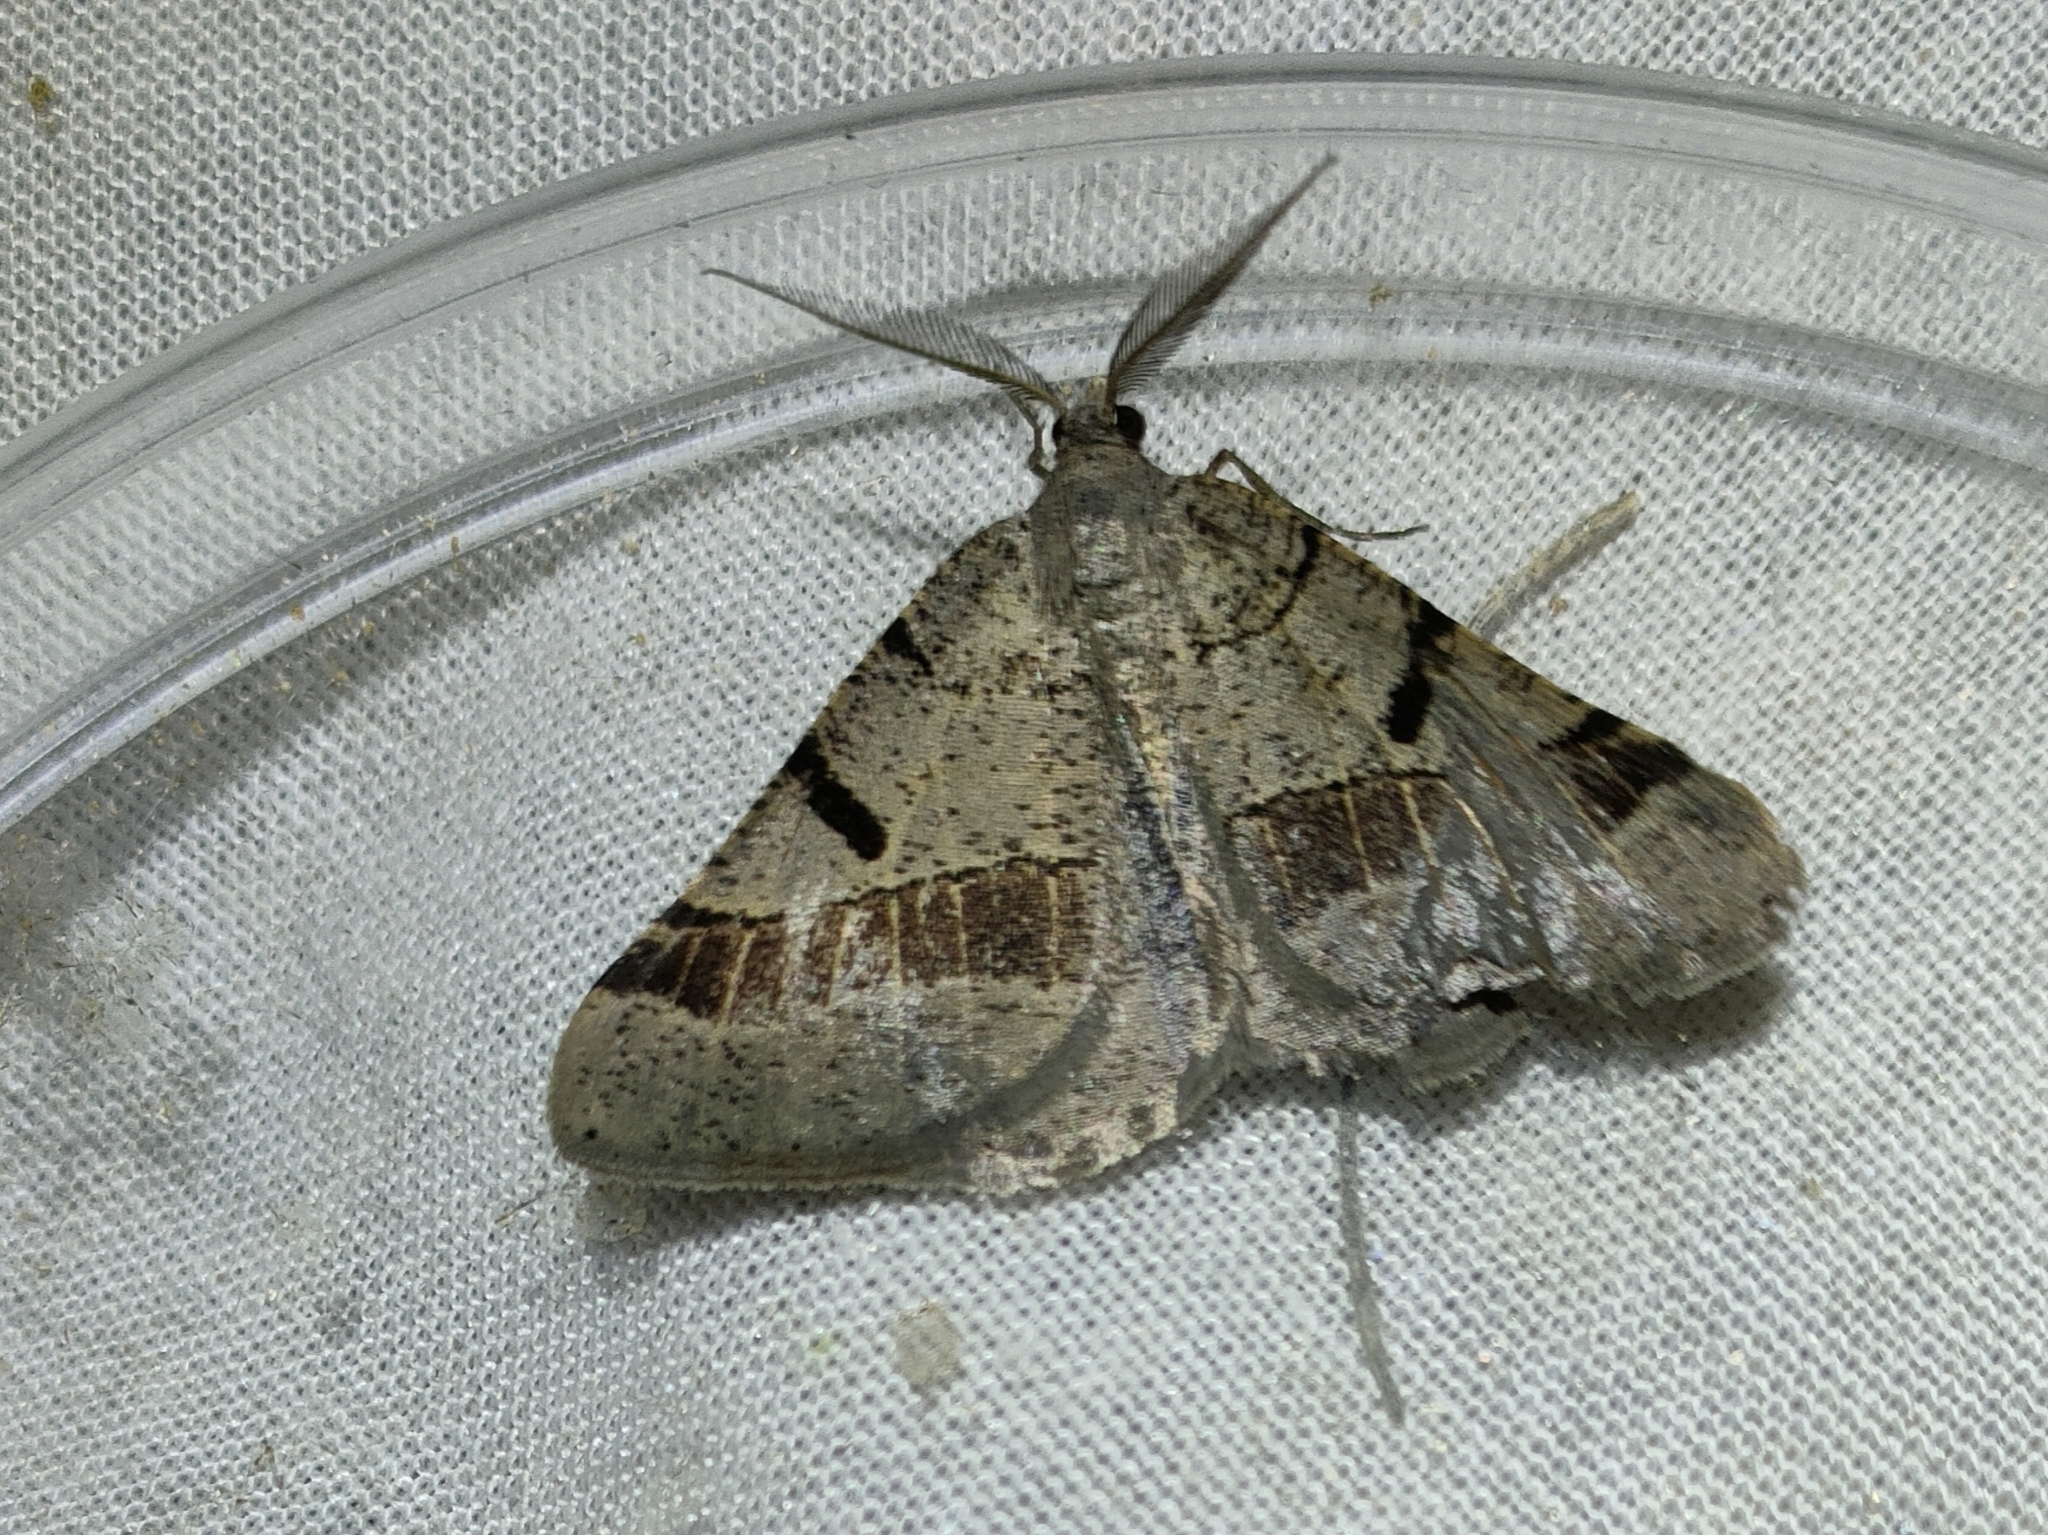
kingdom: Animalia
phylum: Arthropoda
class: Insecta
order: Lepidoptera
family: Geometridae
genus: Itame
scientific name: Itame vincularia
